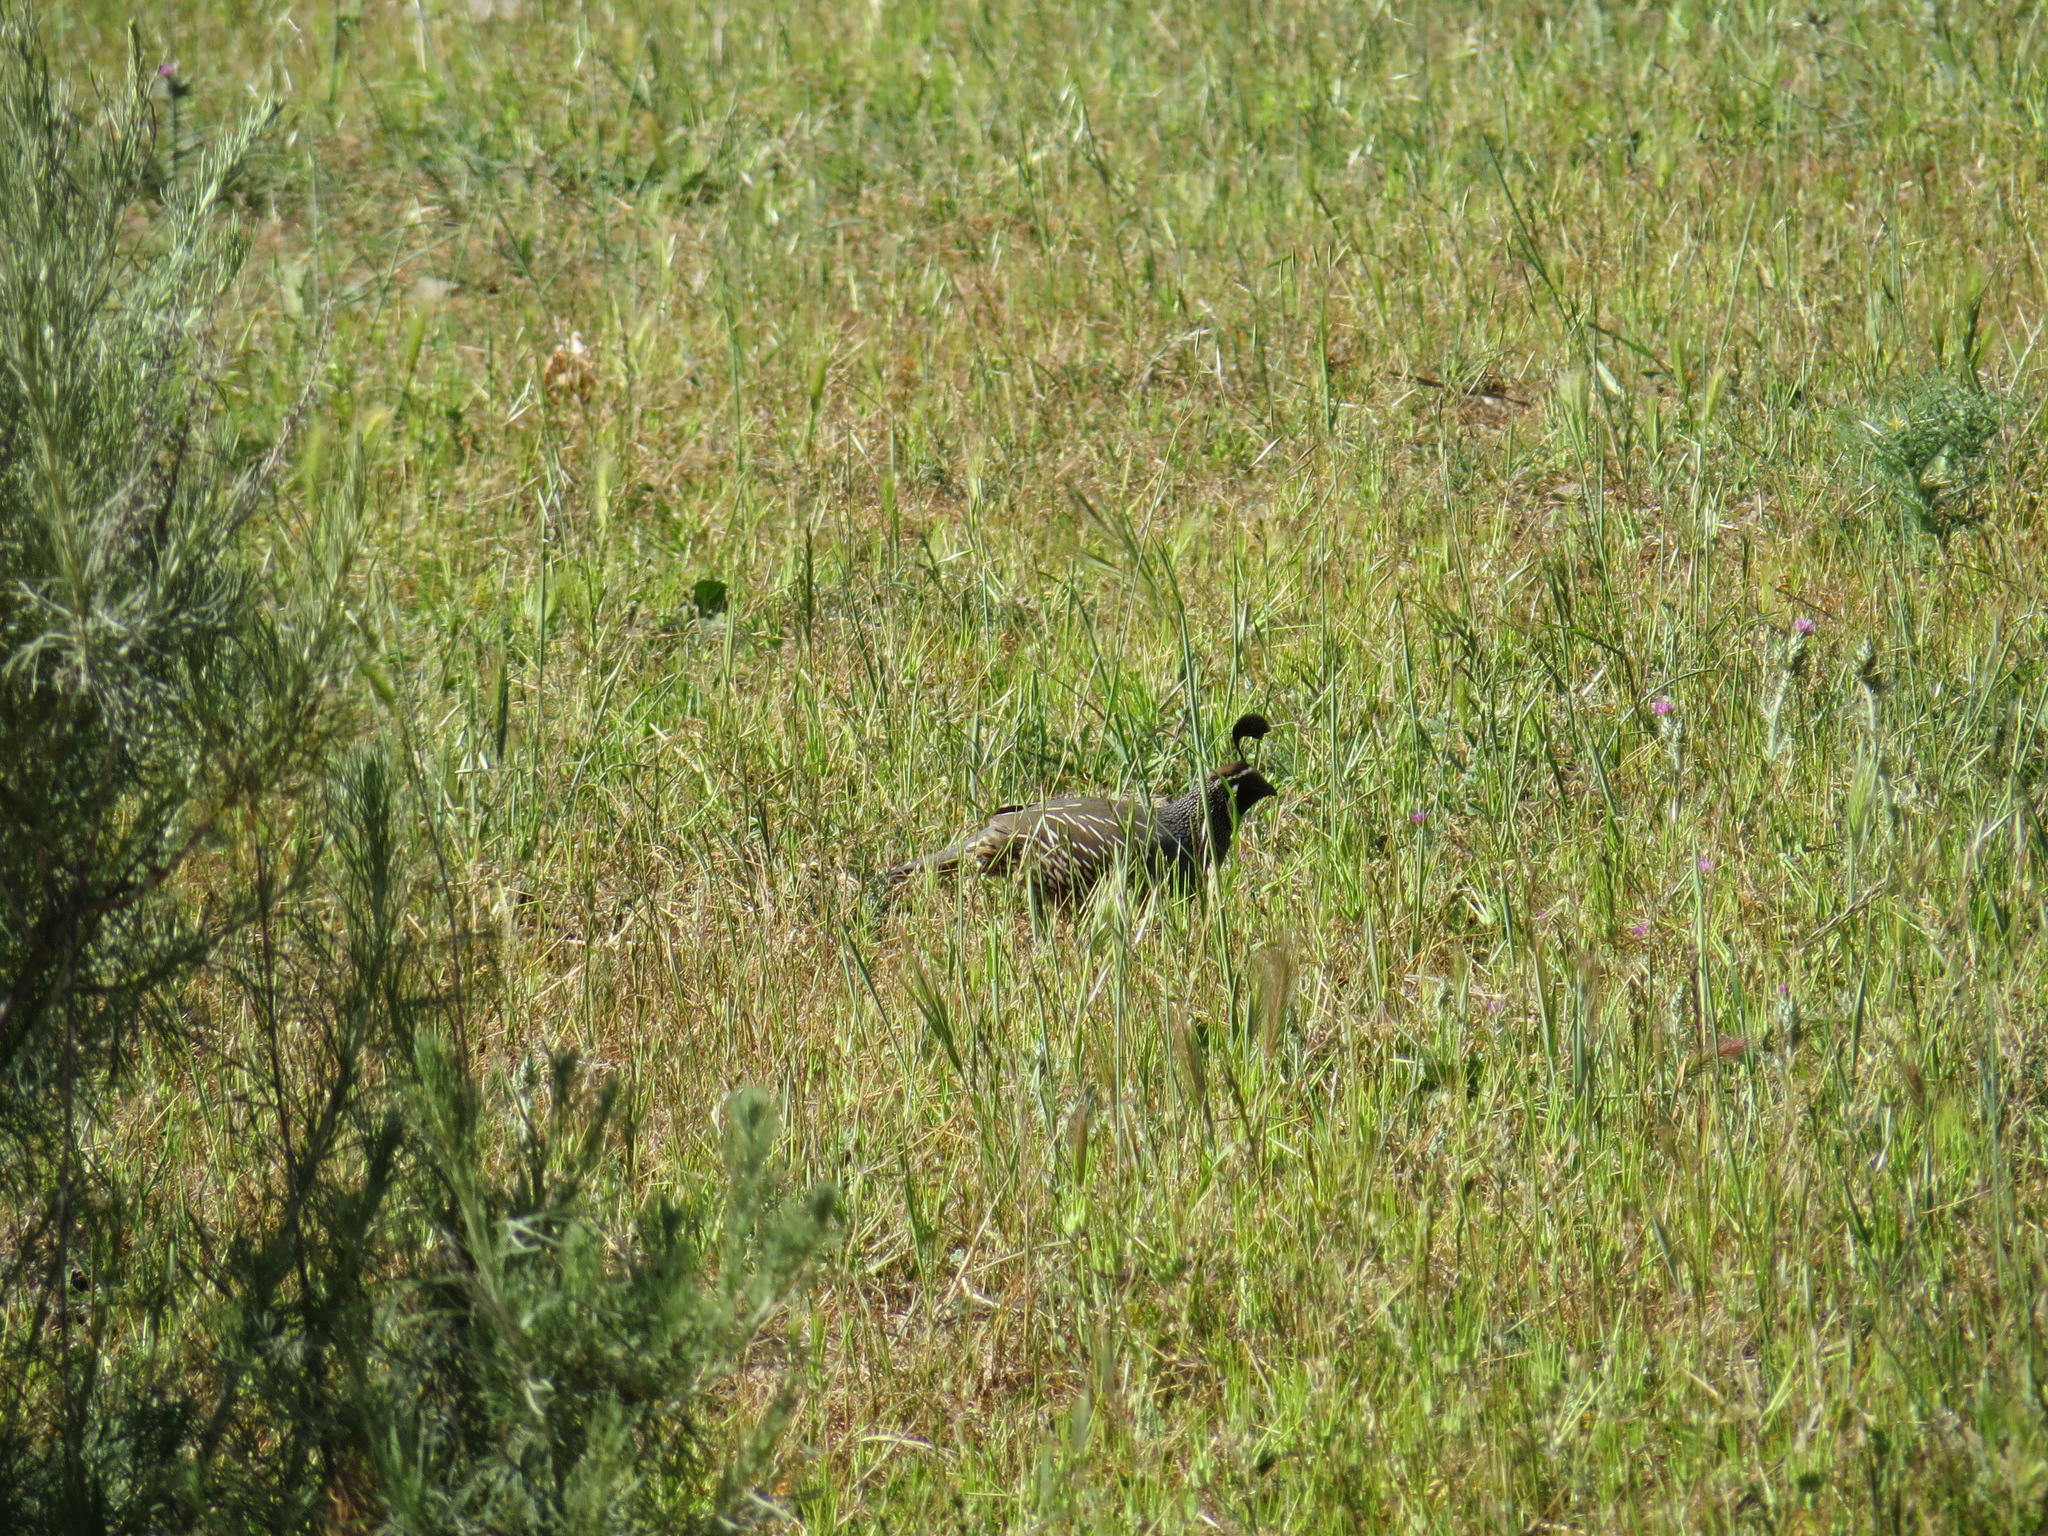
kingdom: Animalia
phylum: Chordata
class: Aves
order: Galliformes
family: Odontophoridae
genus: Callipepla
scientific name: Callipepla californica
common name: California quail
